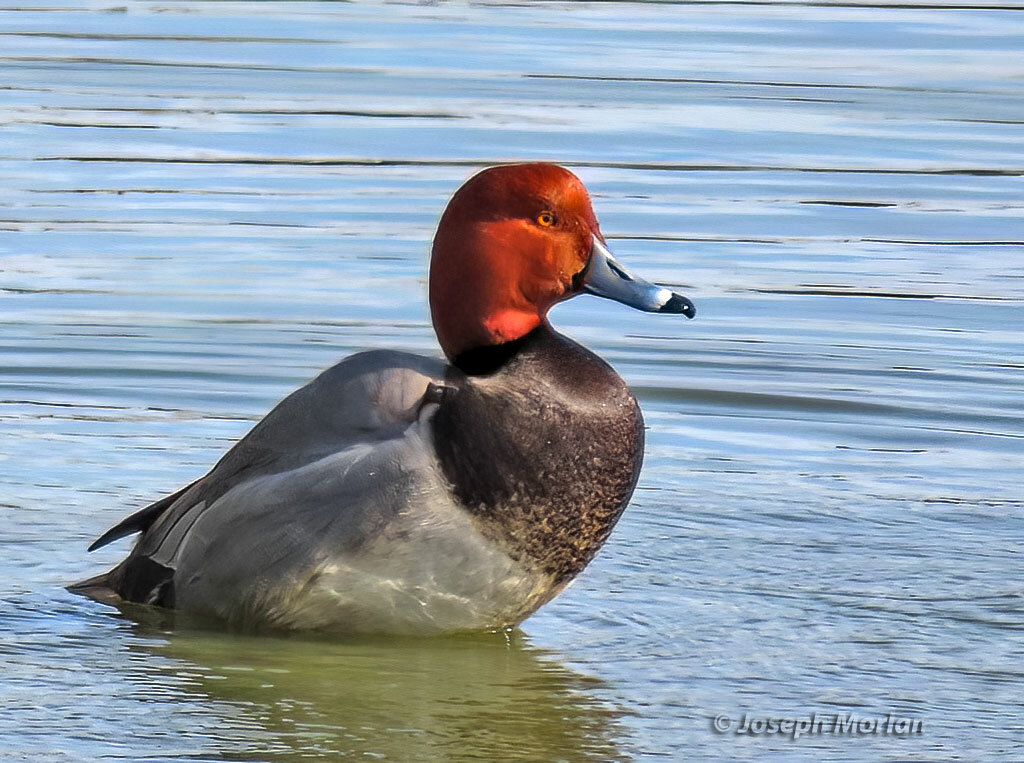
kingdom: Animalia
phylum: Chordata
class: Aves
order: Anseriformes
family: Anatidae
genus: Aythya
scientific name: Aythya americana
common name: Redhead
